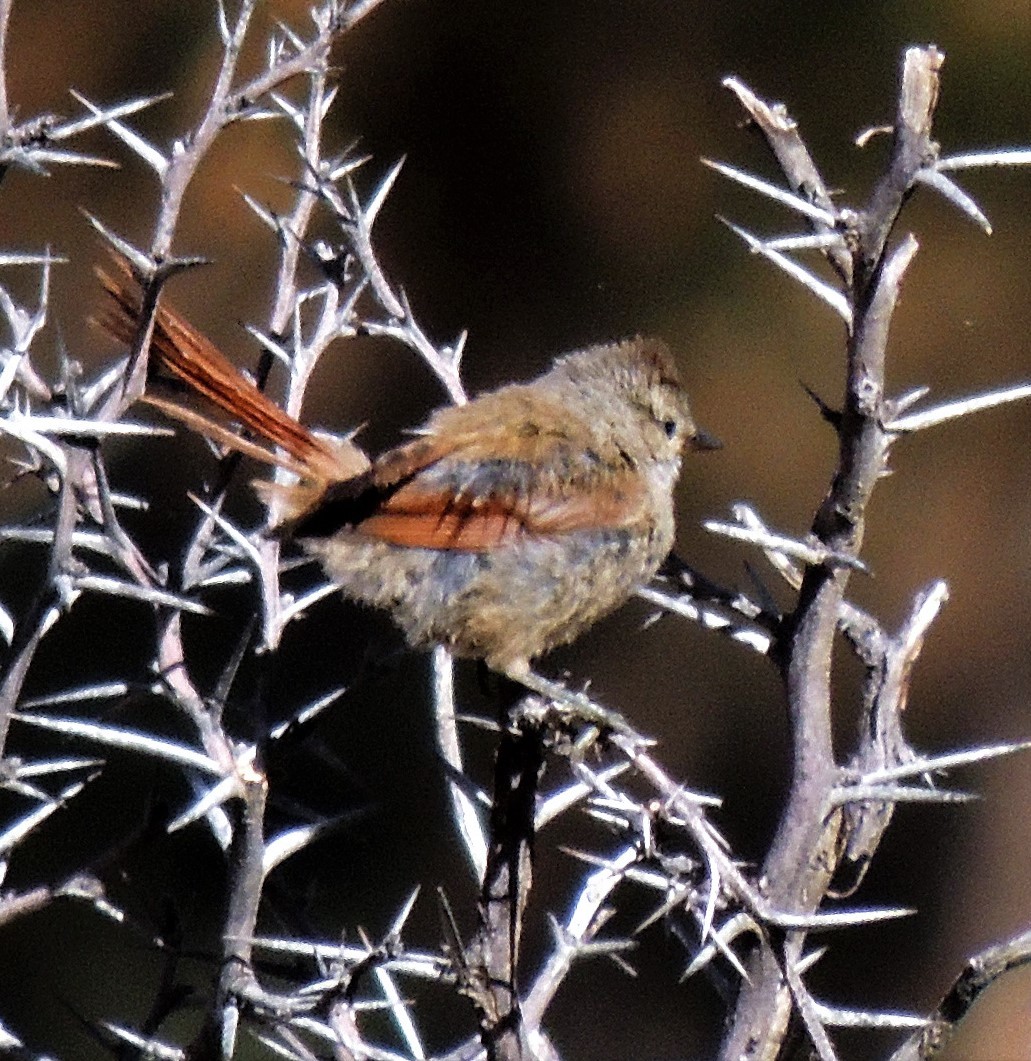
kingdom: Animalia
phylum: Chordata
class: Aves
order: Passeriformes
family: Furnariidae
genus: Leptasthenura
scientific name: Leptasthenura fuliginiceps
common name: Brown-capped tit-spinetail
